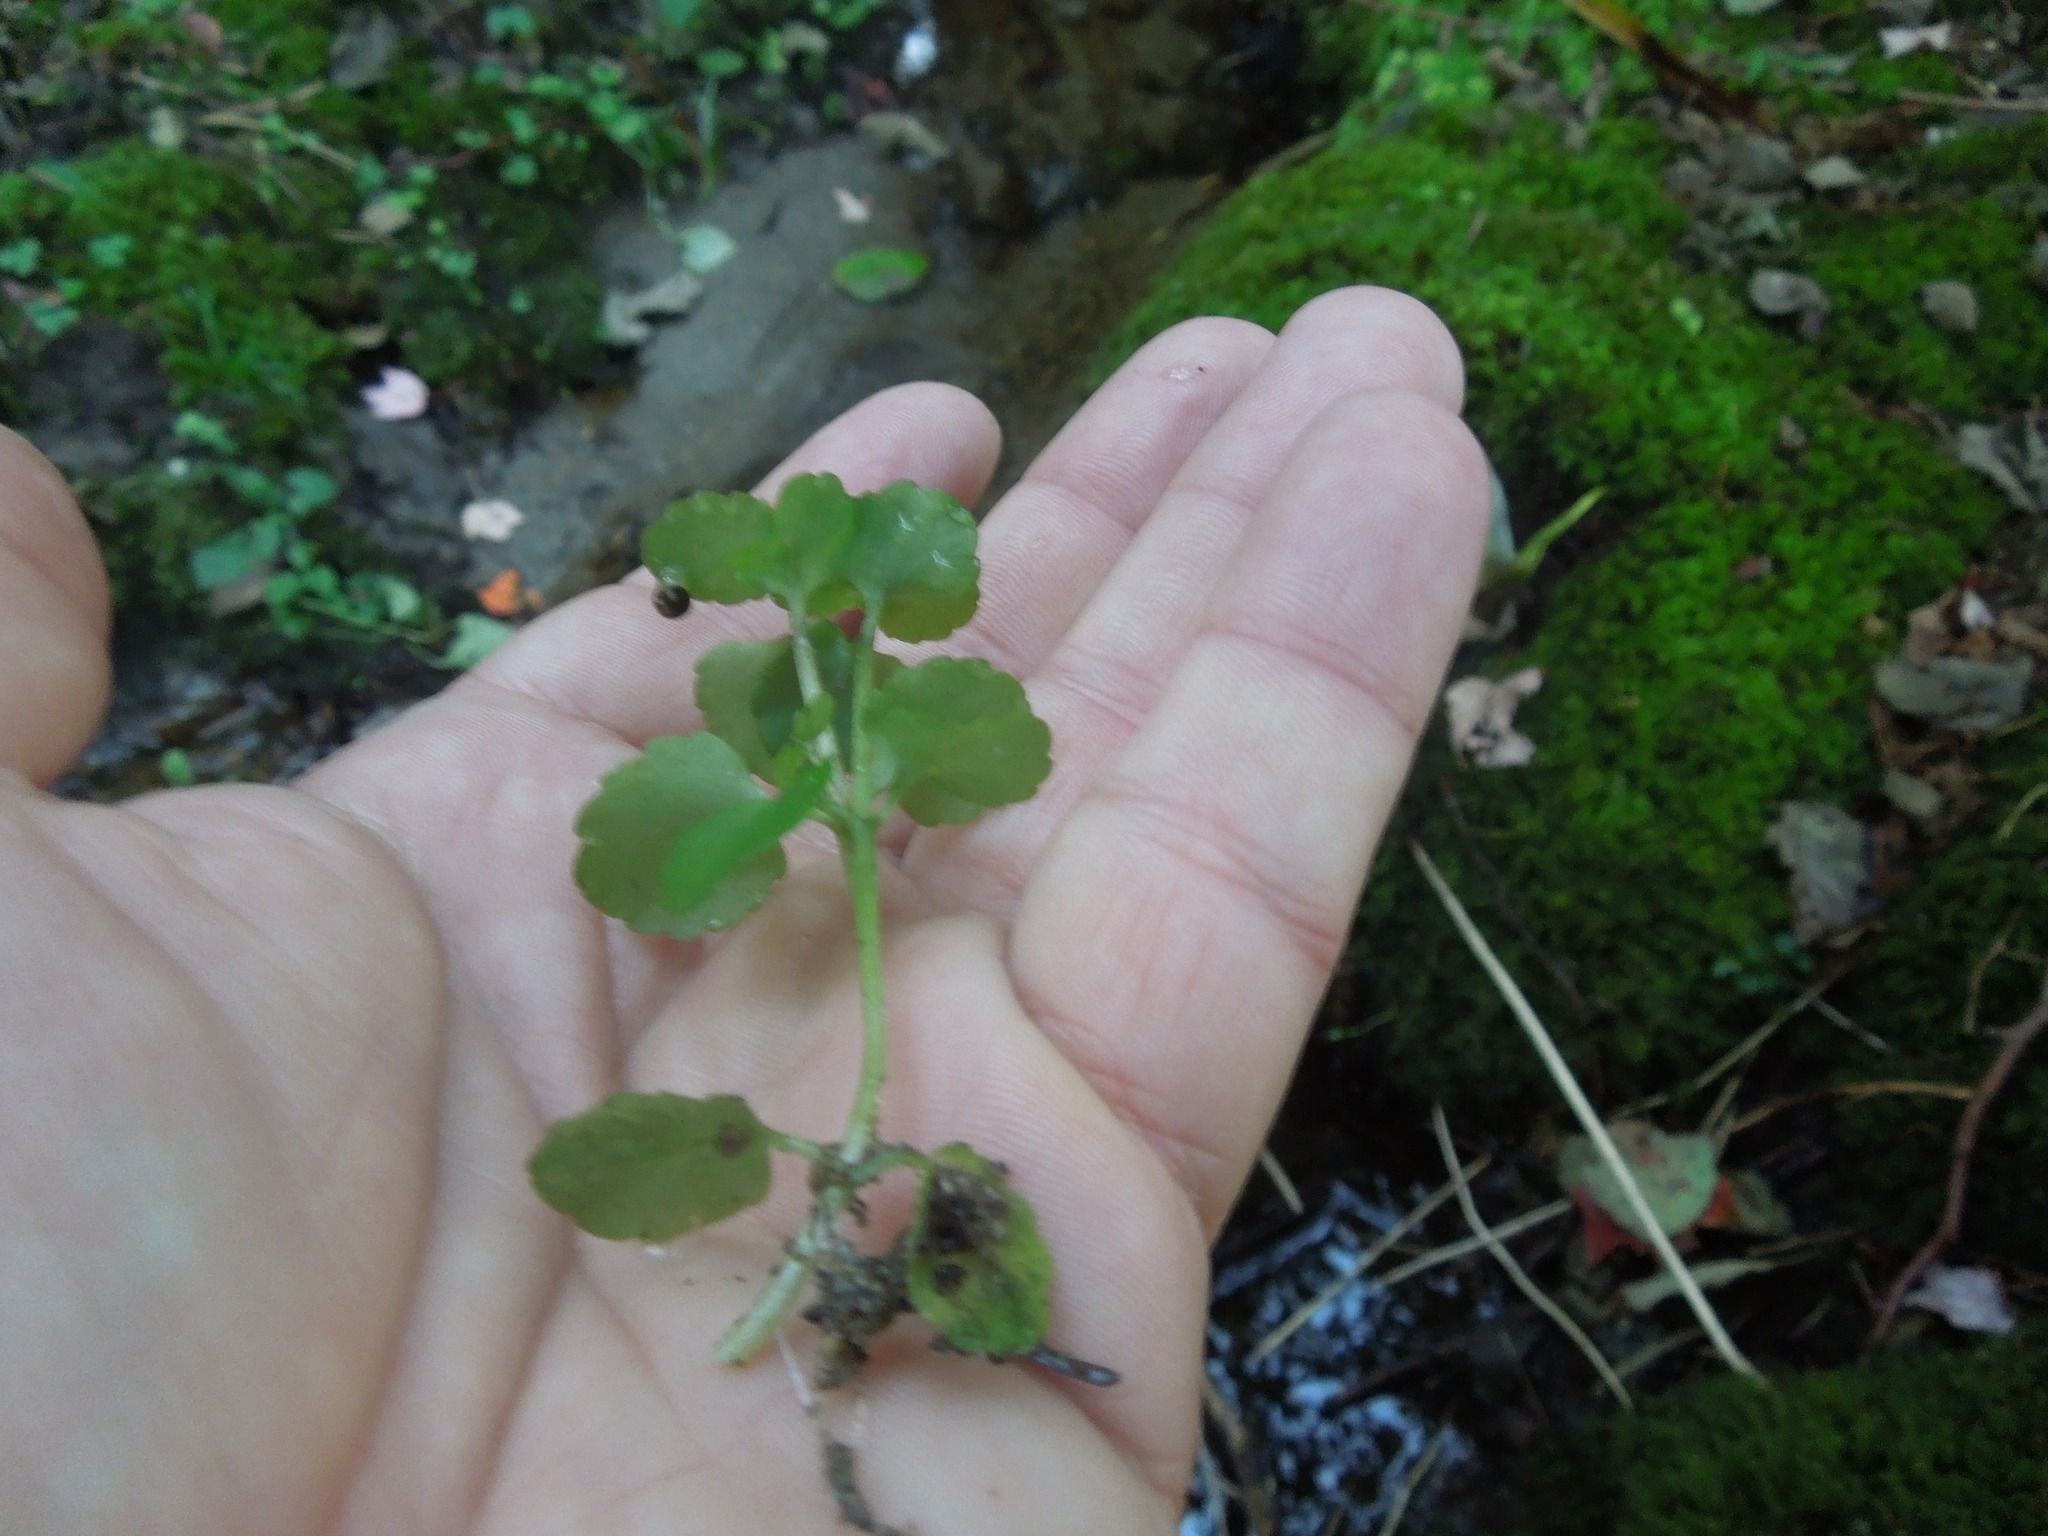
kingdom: Plantae
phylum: Tracheophyta
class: Magnoliopsida
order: Saxifragales
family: Saxifragaceae
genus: Chrysosplenium
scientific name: Chrysosplenium americanum
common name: American golden-saxifrage
